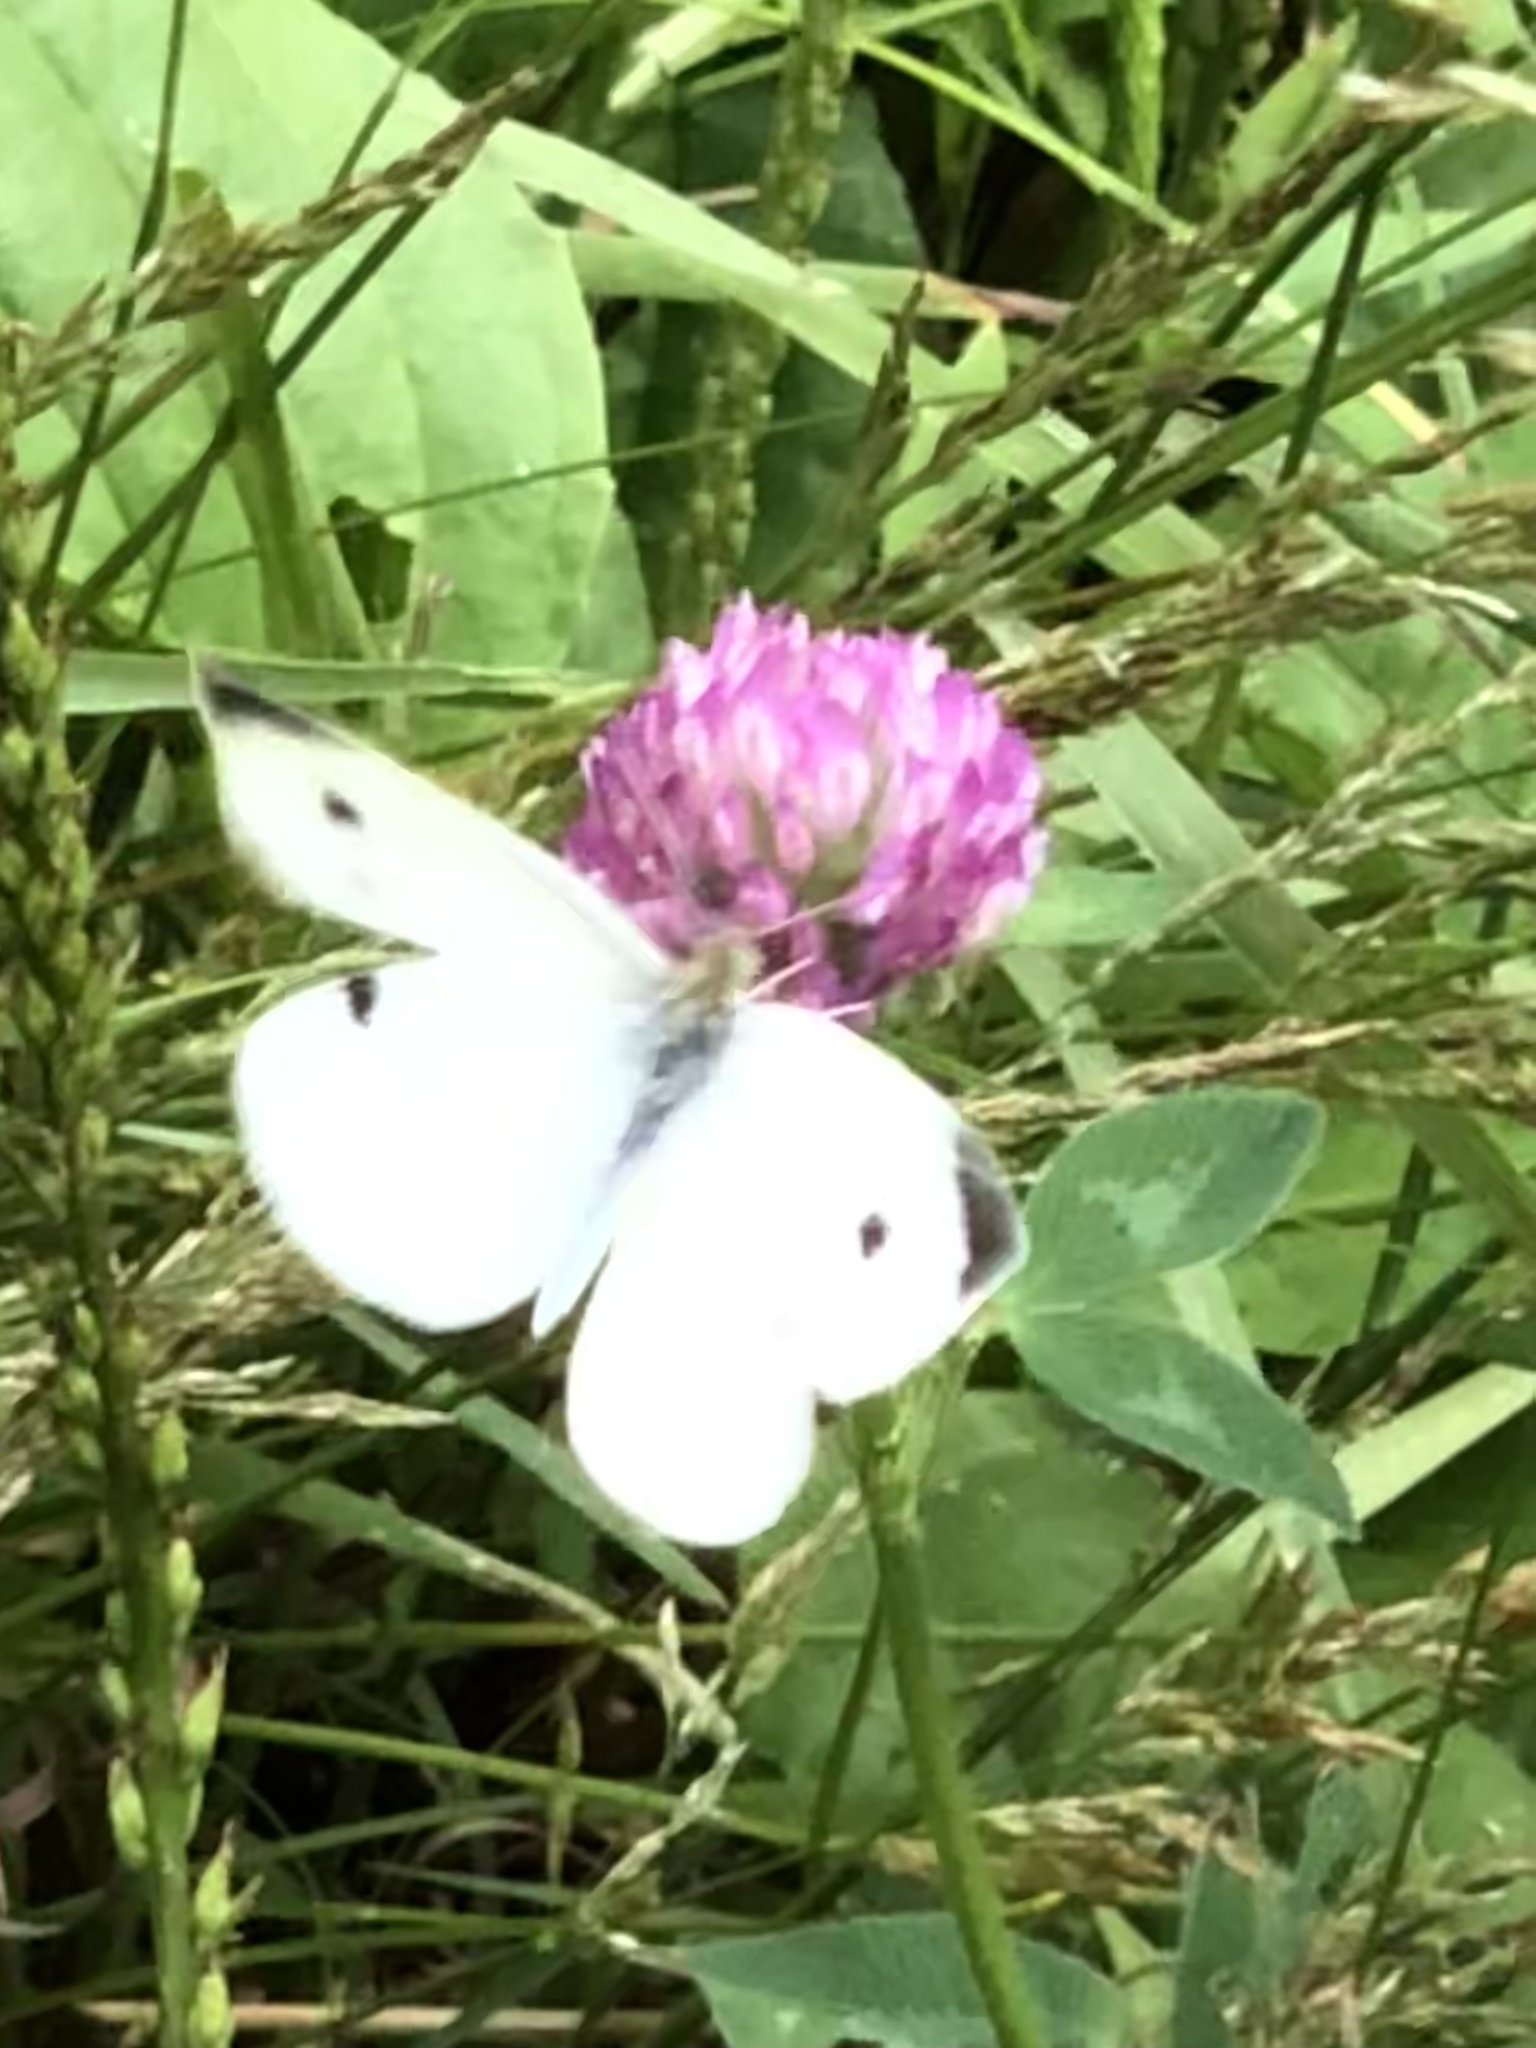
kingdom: Animalia
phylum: Arthropoda
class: Insecta
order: Lepidoptera
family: Pieridae
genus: Pieris
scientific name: Pieris rapae
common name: Small white
